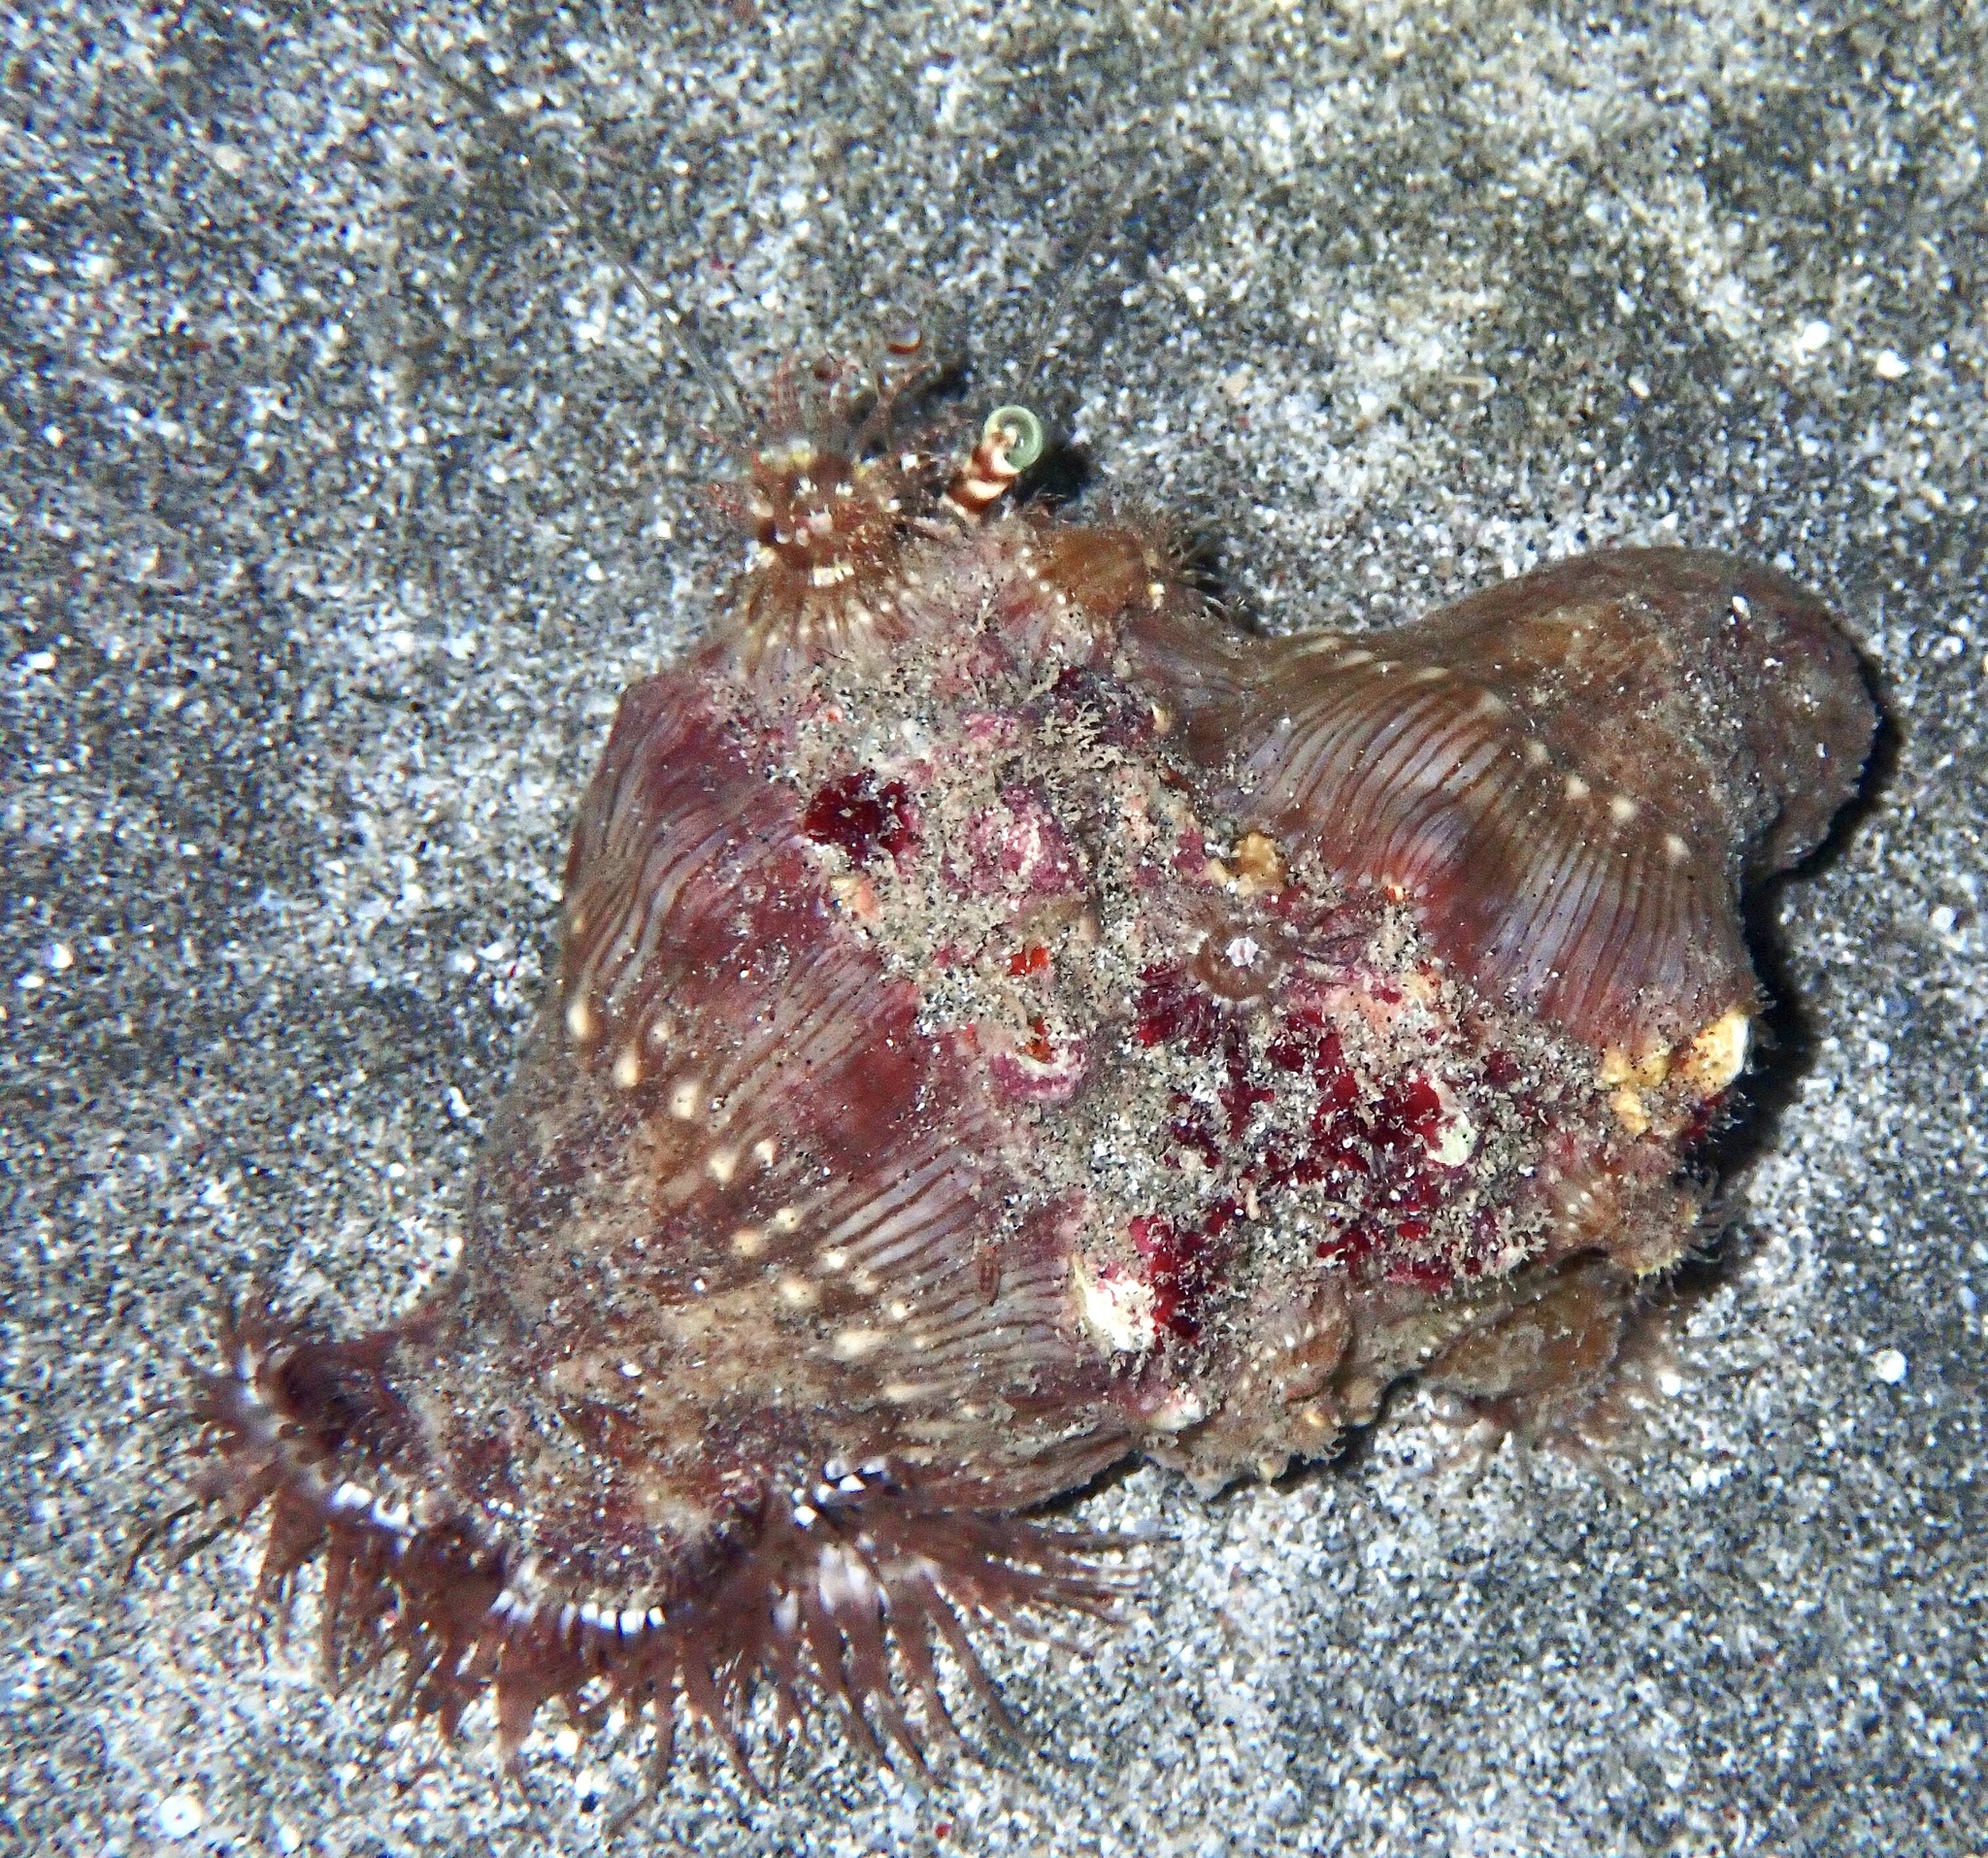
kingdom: Animalia
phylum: Arthropoda
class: Malacostraca
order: Decapoda
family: Diogenidae
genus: Dardanus
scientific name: Dardanus tinctor
